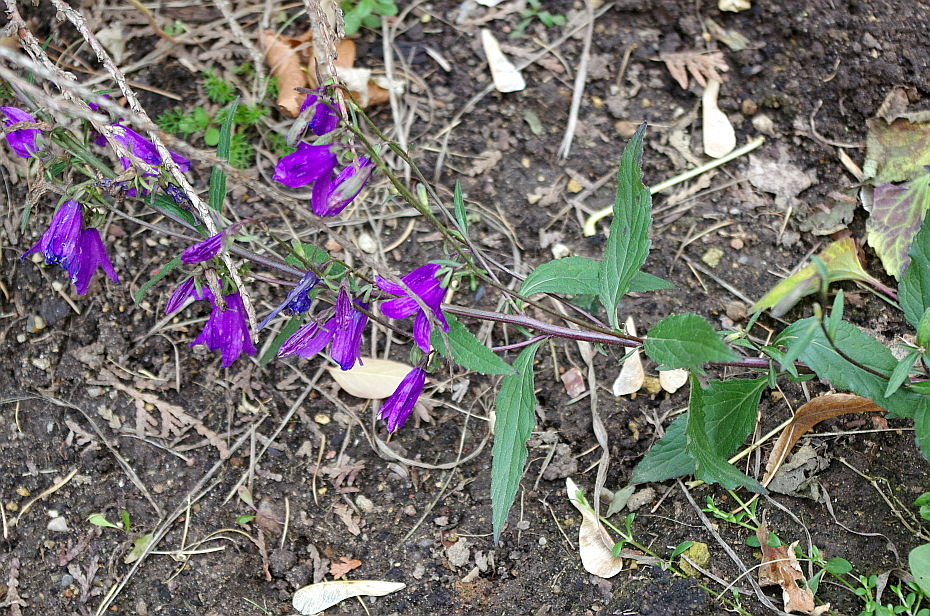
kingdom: Plantae
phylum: Tracheophyta
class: Magnoliopsida
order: Asterales
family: Campanulaceae
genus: Campanula
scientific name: Campanula rapunculoides
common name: Creeping bellflower
